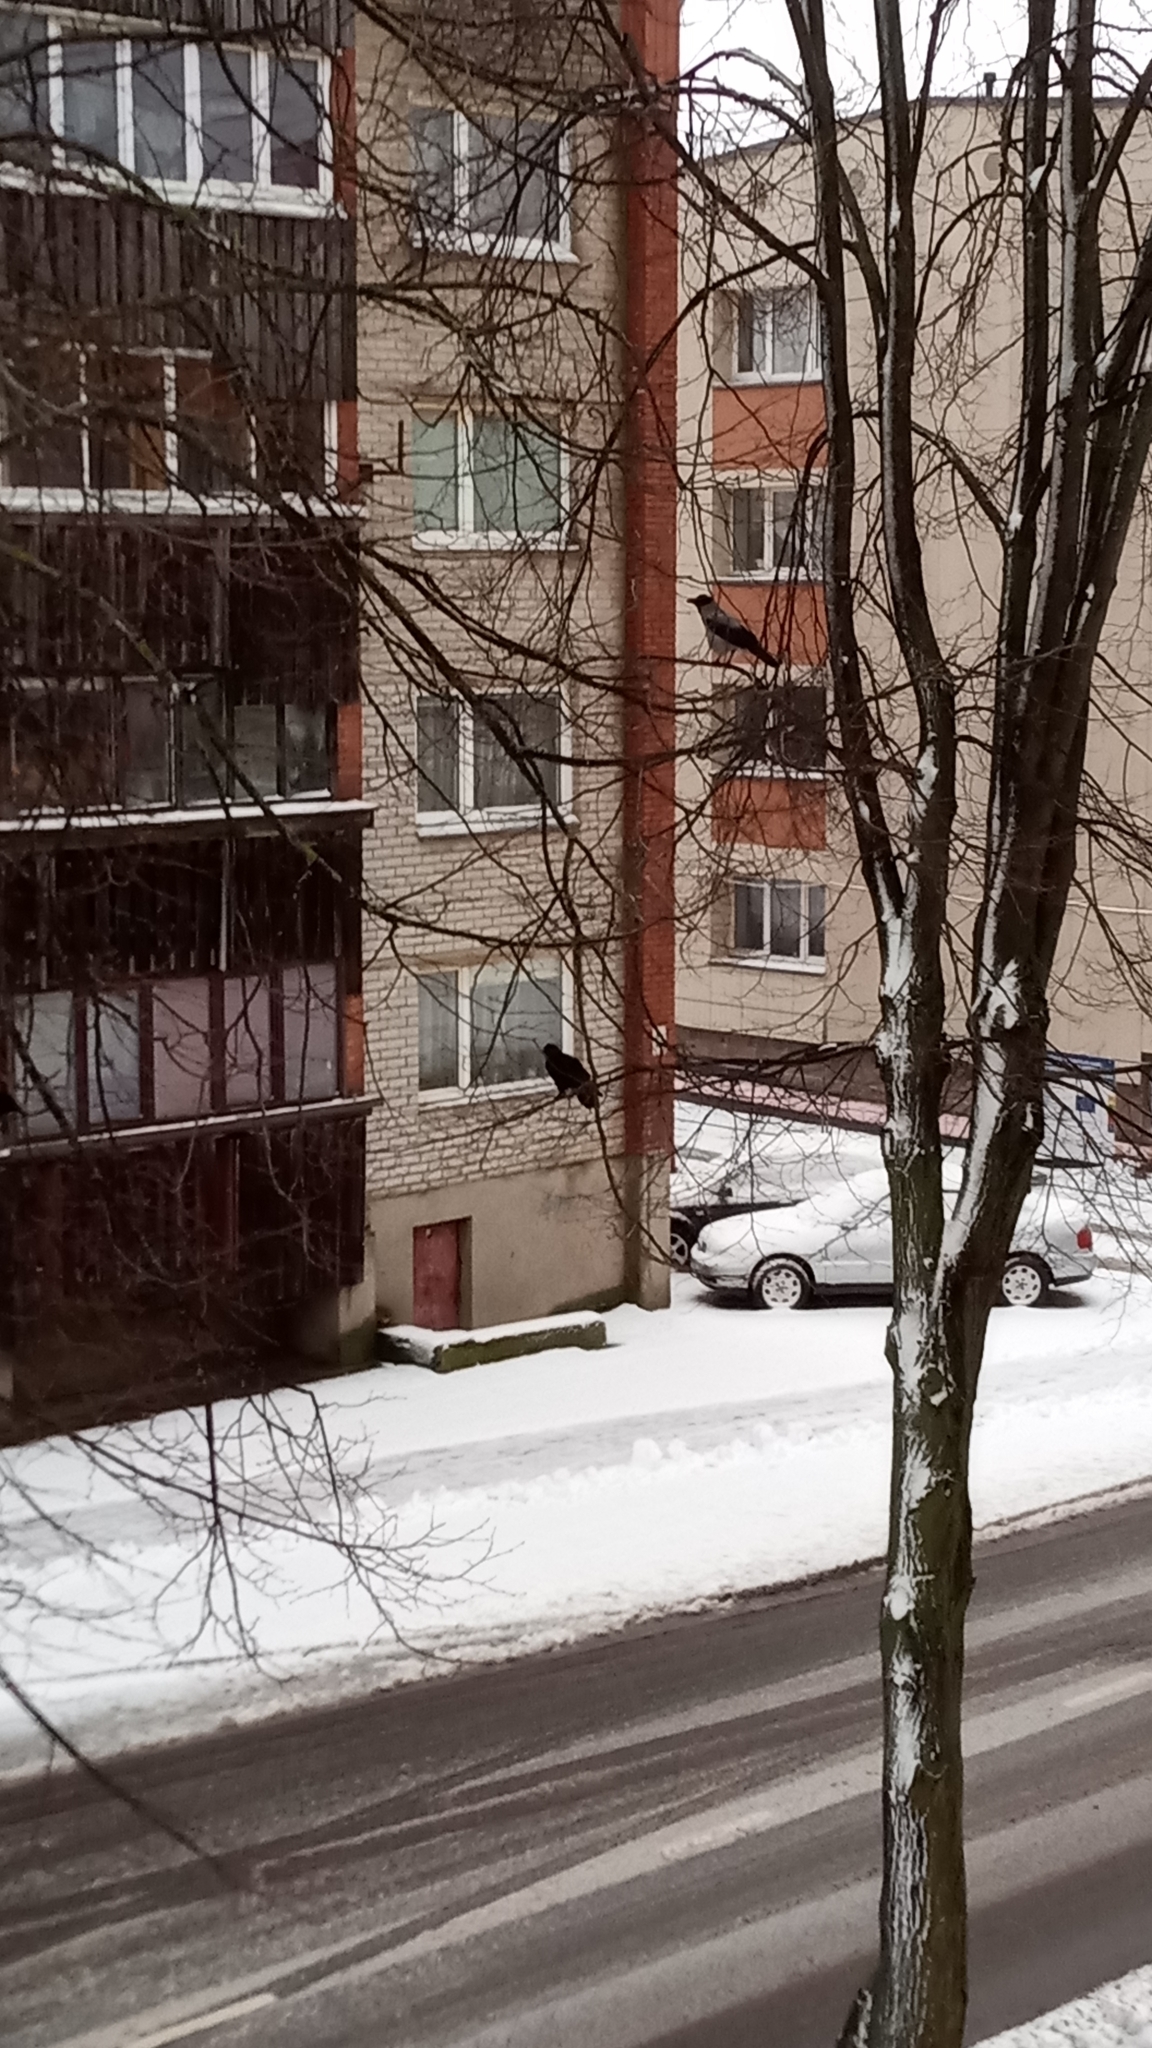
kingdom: Animalia
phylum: Chordata
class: Aves
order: Passeriformes
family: Corvidae
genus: Corvus
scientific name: Corvus cornix
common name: Hooded crow
